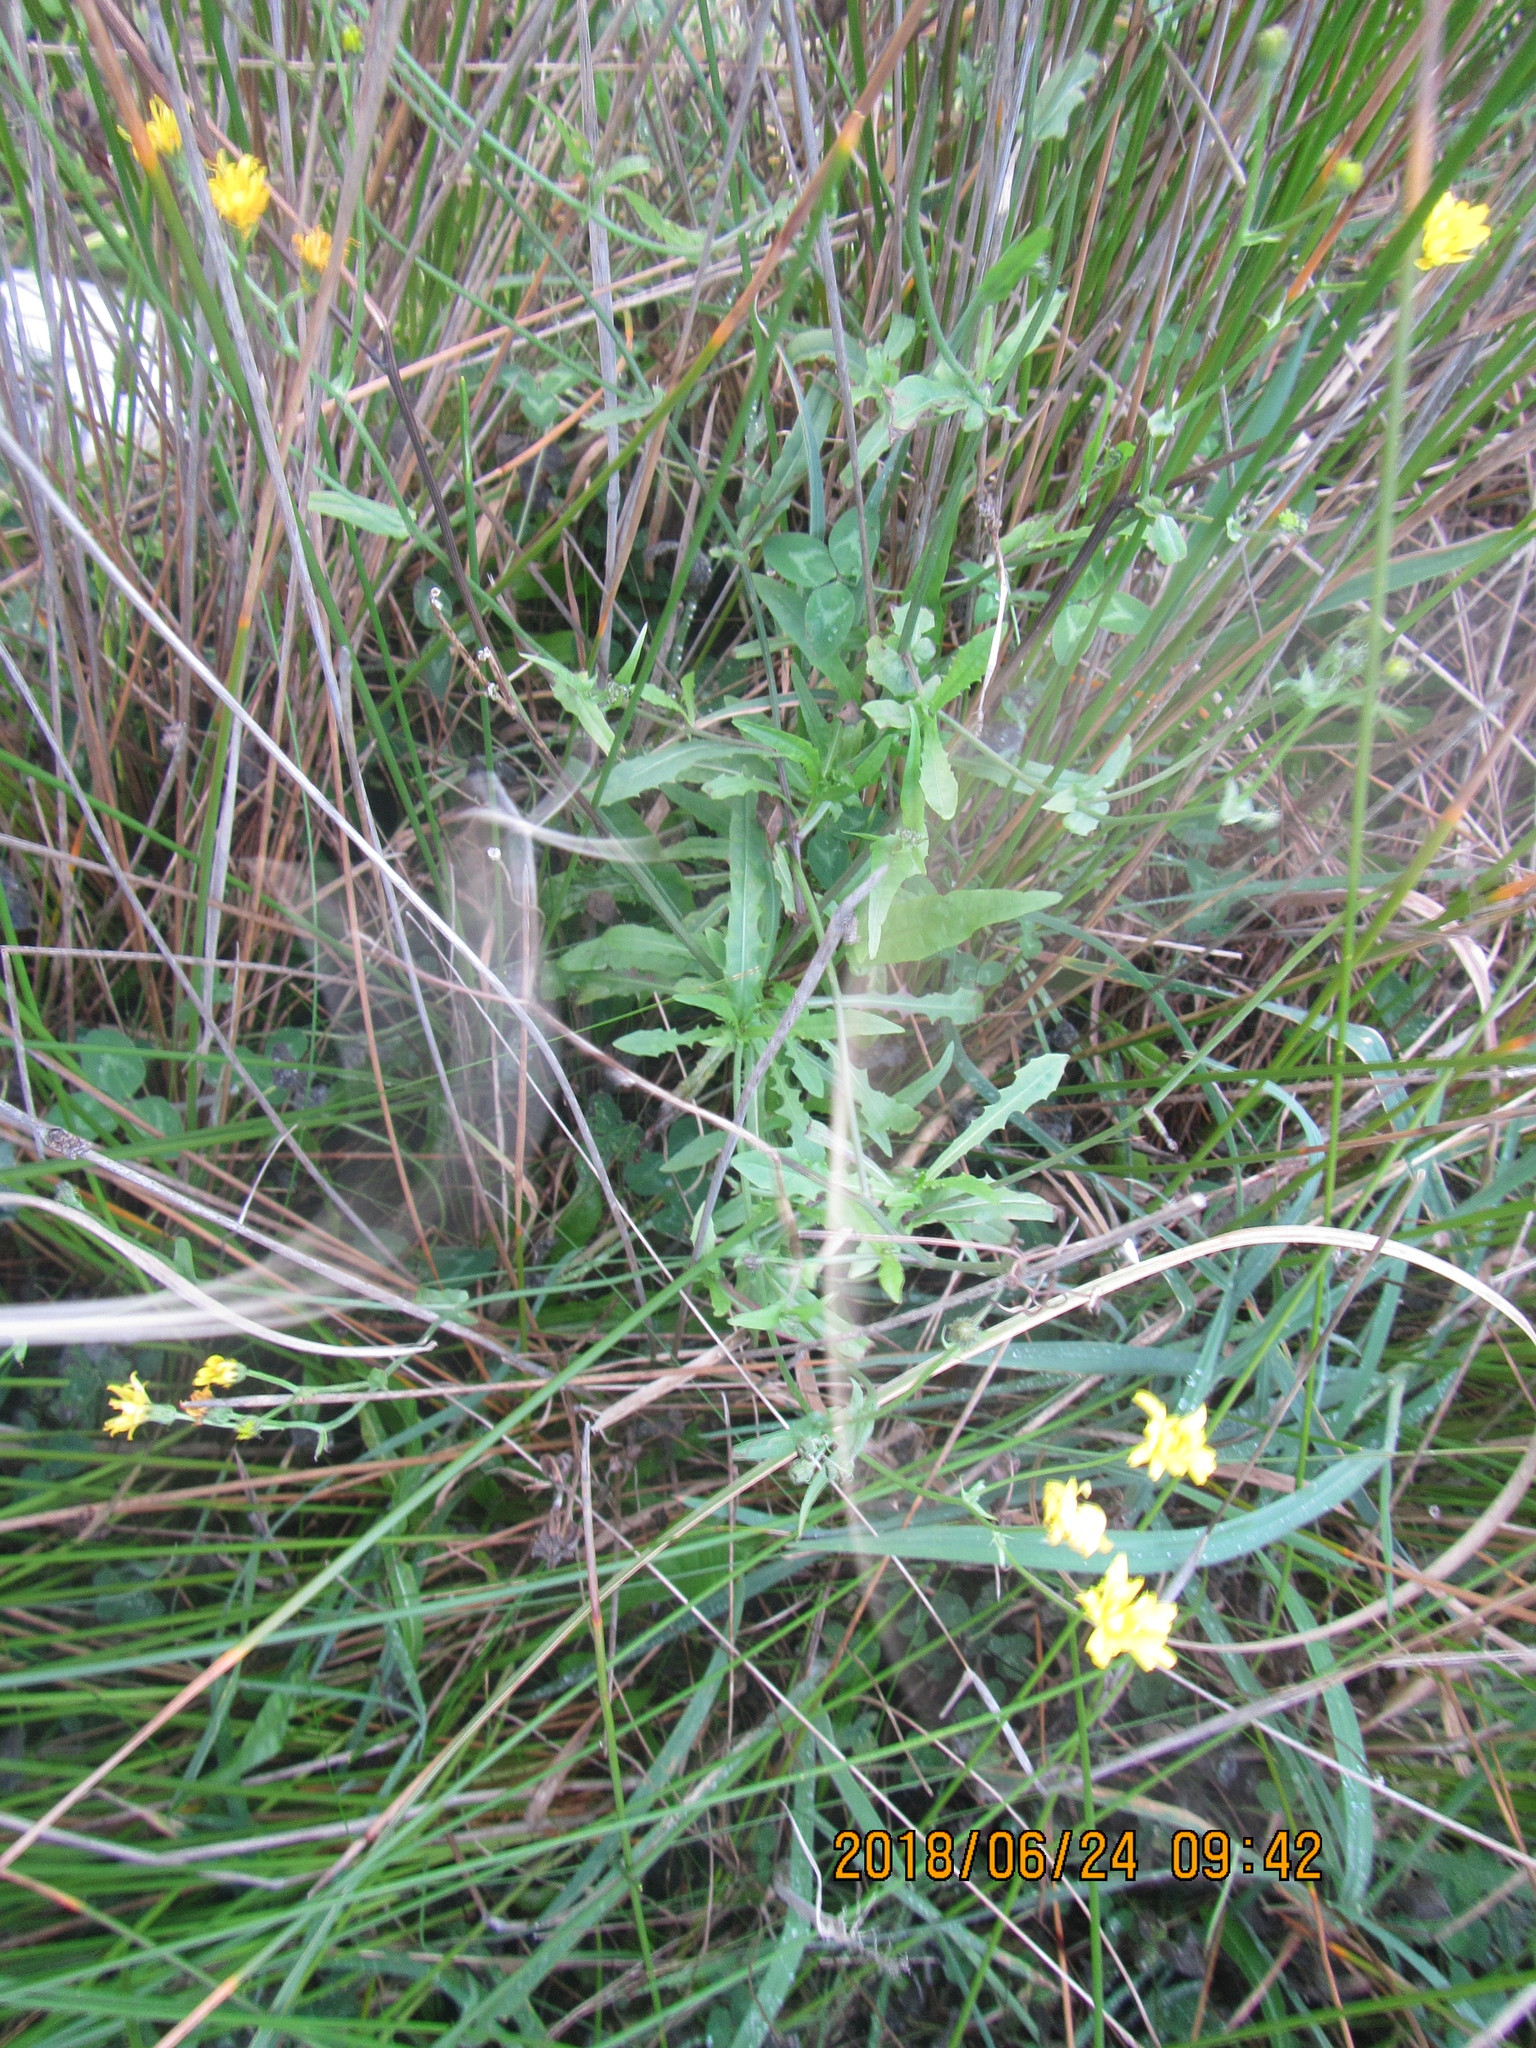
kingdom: Plantae
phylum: Tracheophyta
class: Magnoliopsida
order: Asterales
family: Asteraceae
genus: Crepis
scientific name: Crepis capillaris
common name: Smooth hawksbeard
